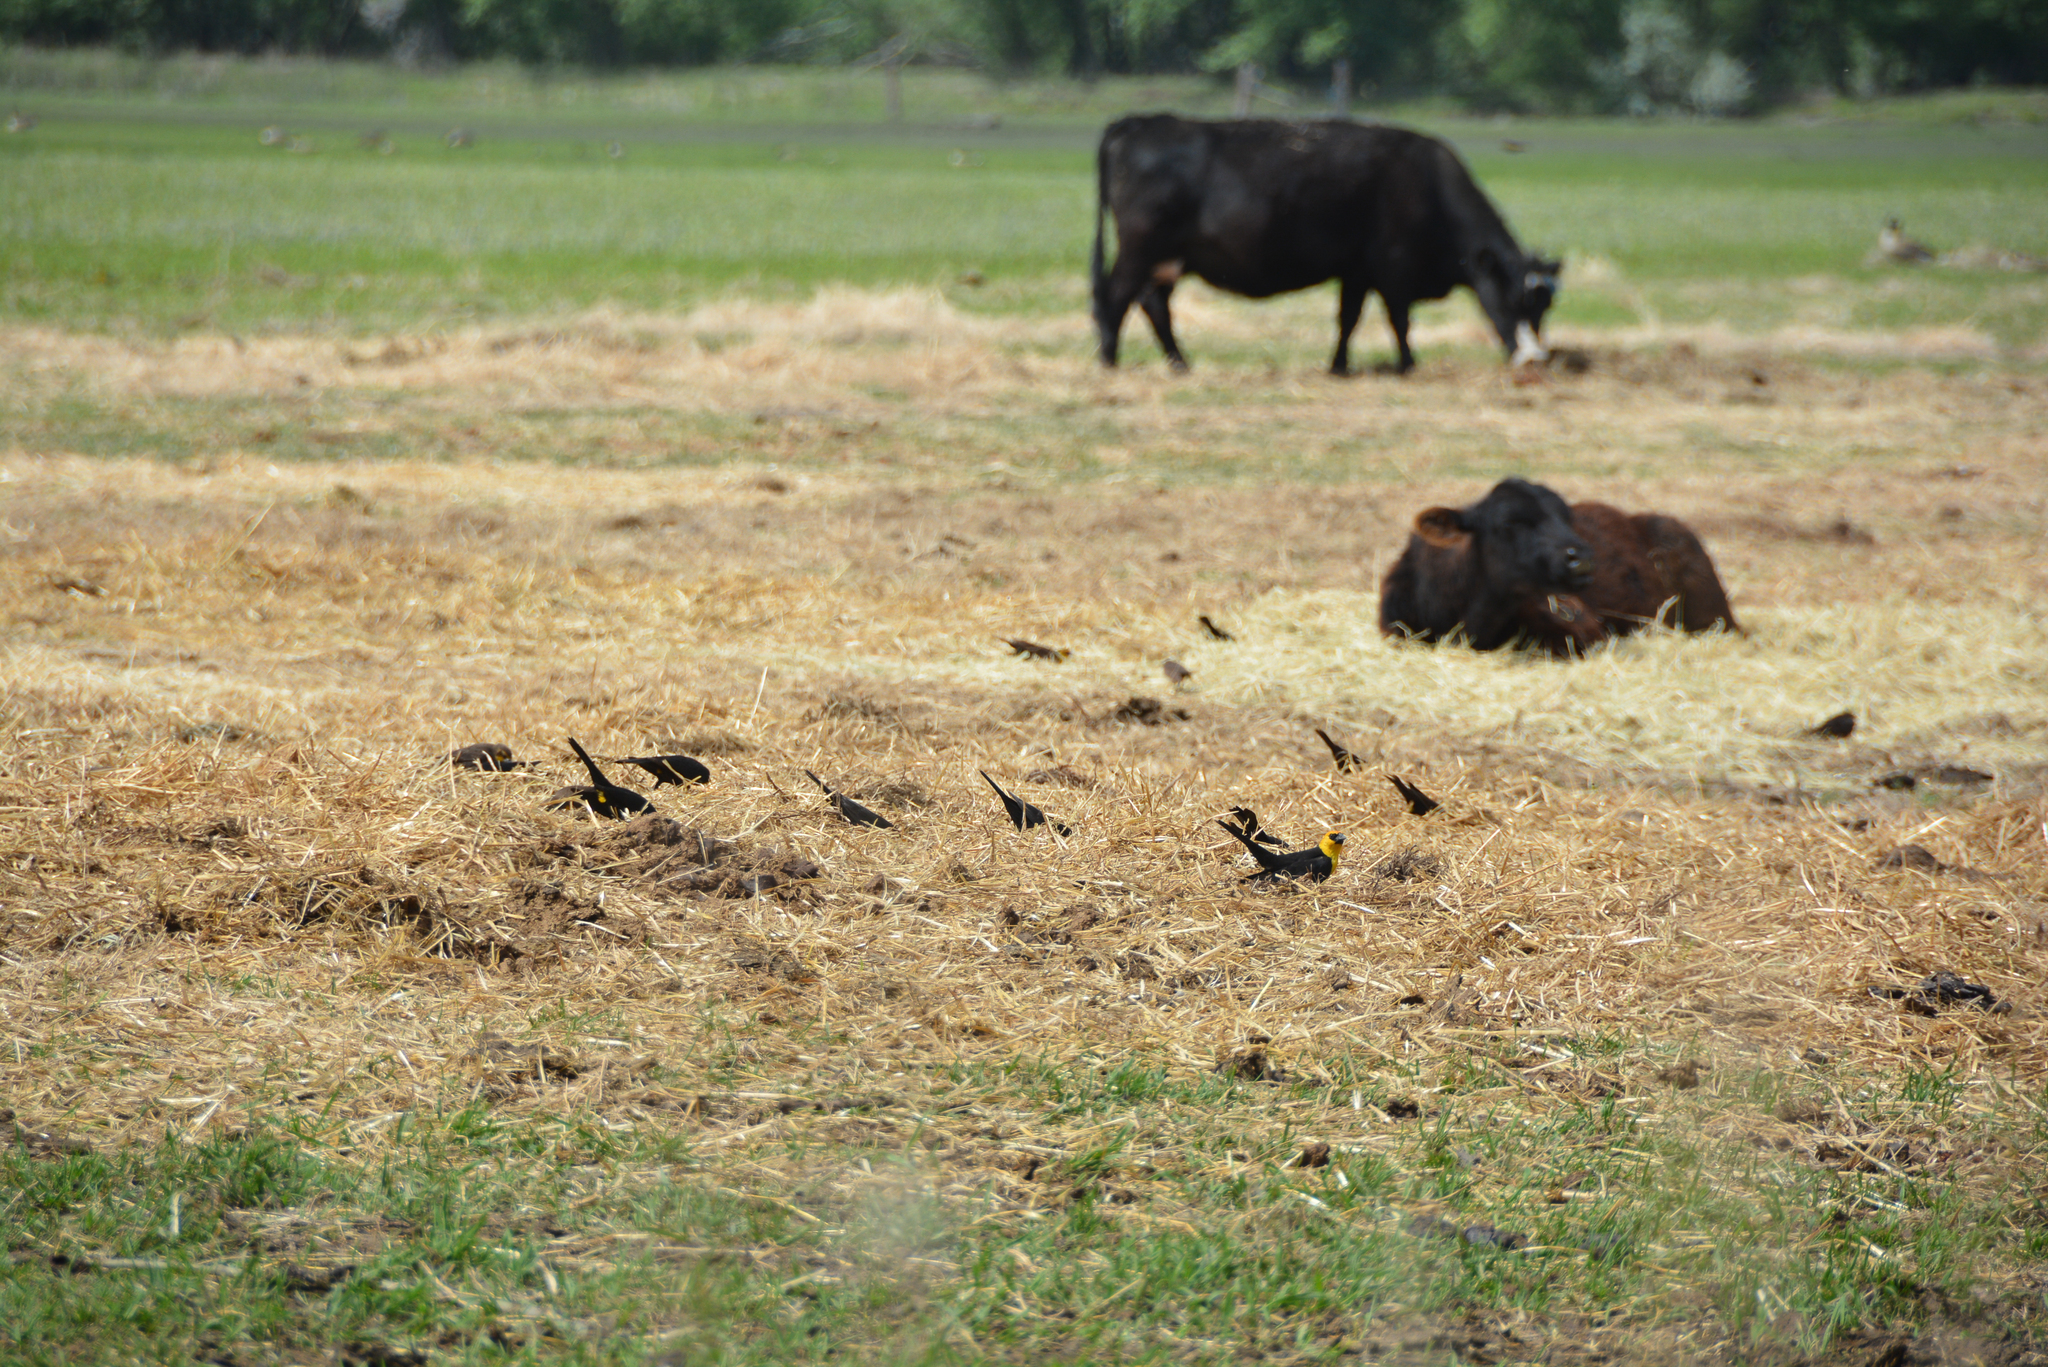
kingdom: Animalia
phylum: Chordata
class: Aves
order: Passeriformes
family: Icteridae
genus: Xanthocephalus
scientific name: Xanthocephalus xanthocephalus
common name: Yellow-headed blackbird
